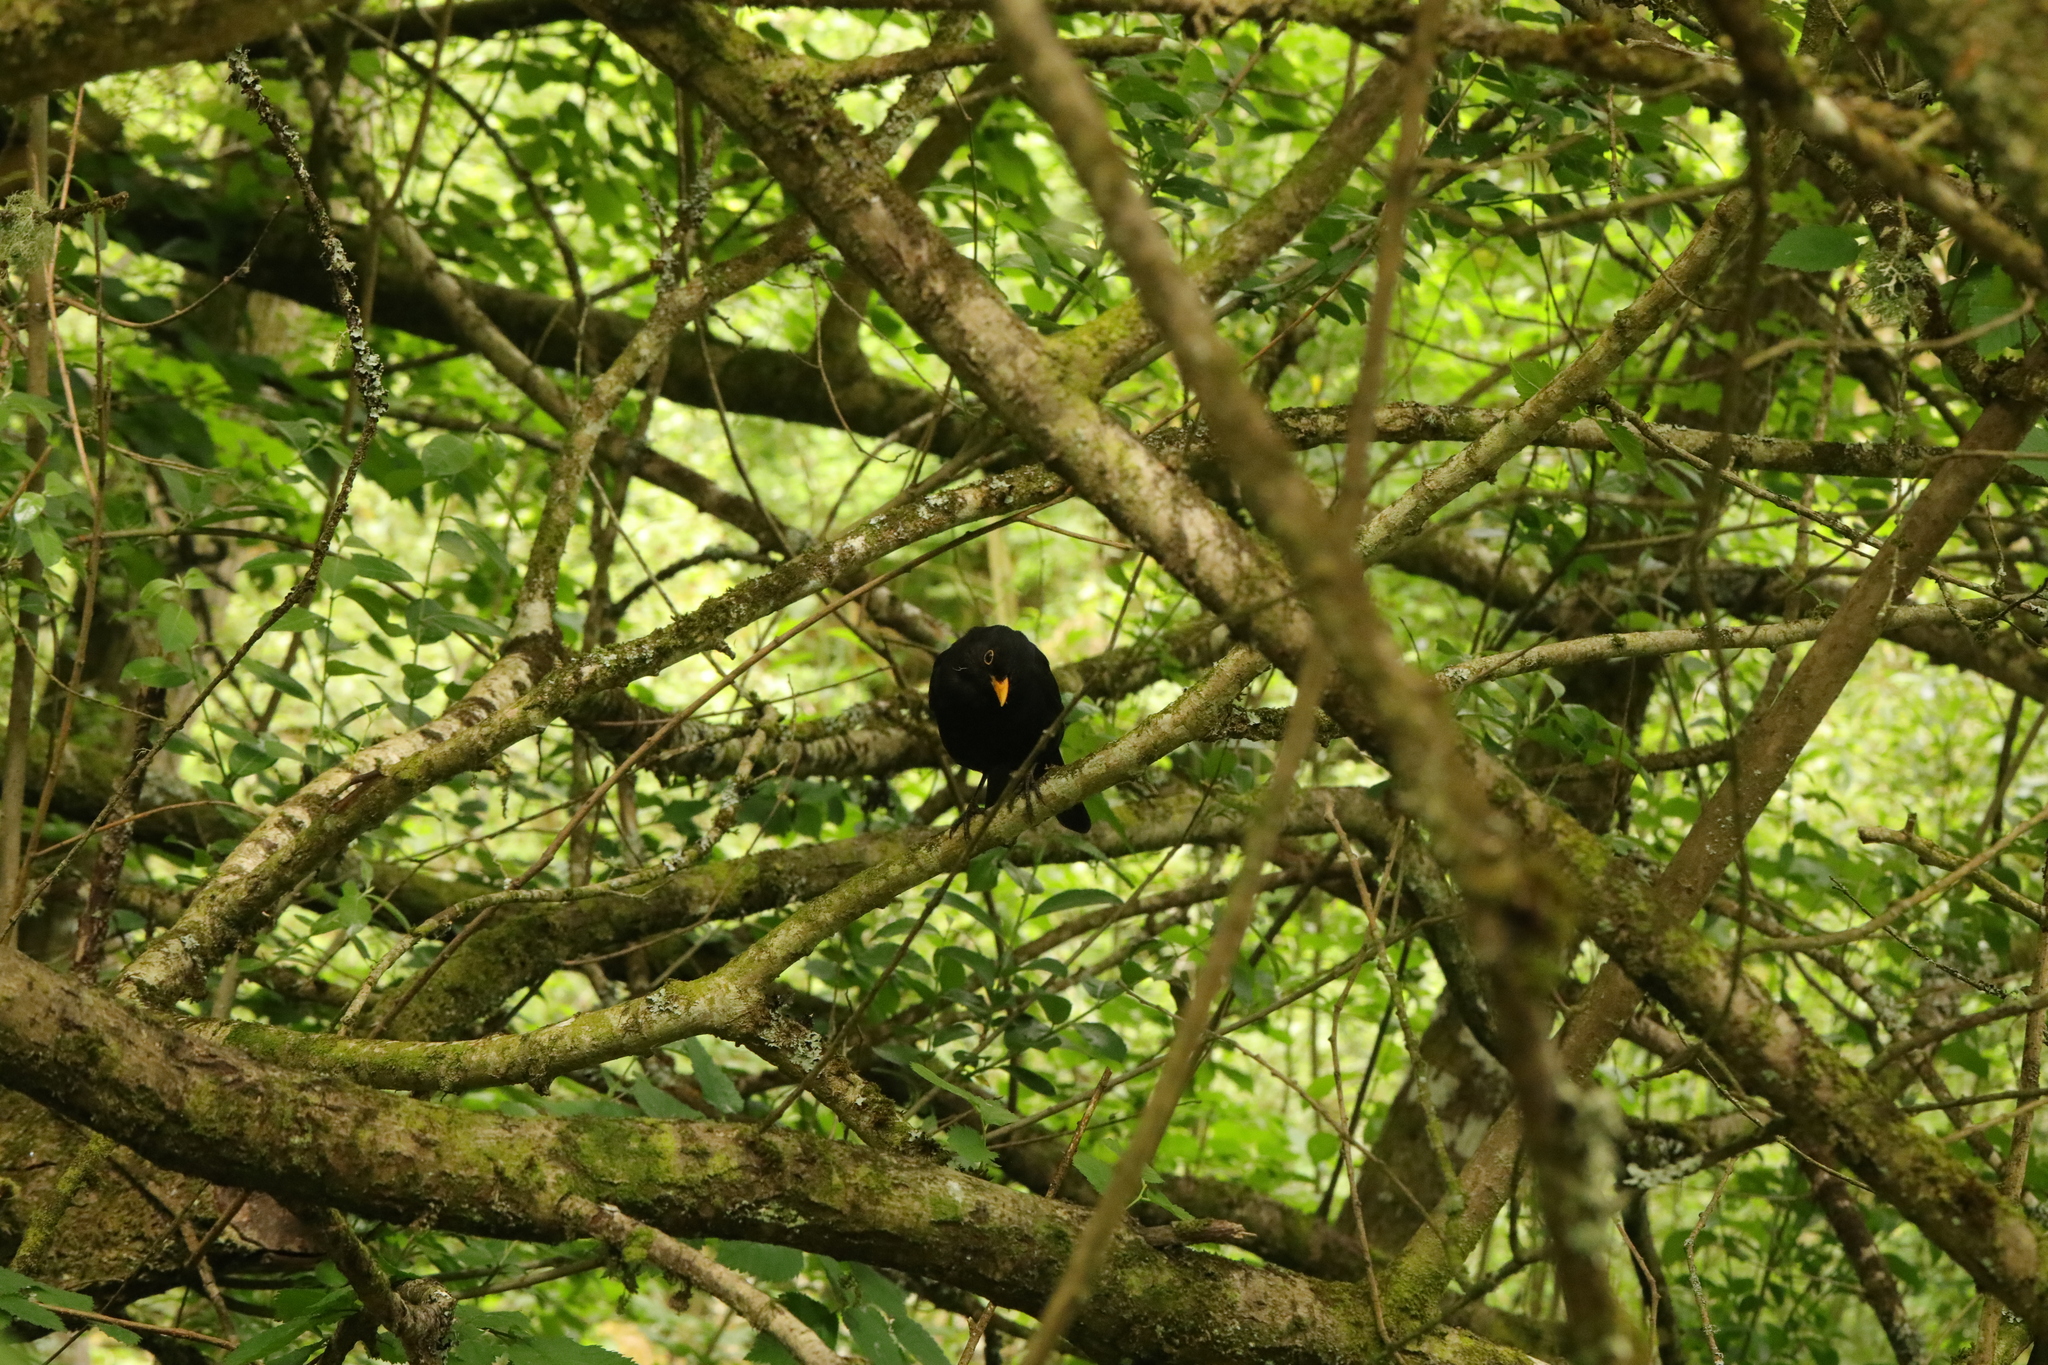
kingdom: Animalia
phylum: Chordata
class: Aves
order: Passeriformes
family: Turdidae
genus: Turdus
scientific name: Turdus merula
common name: Common blackbird
